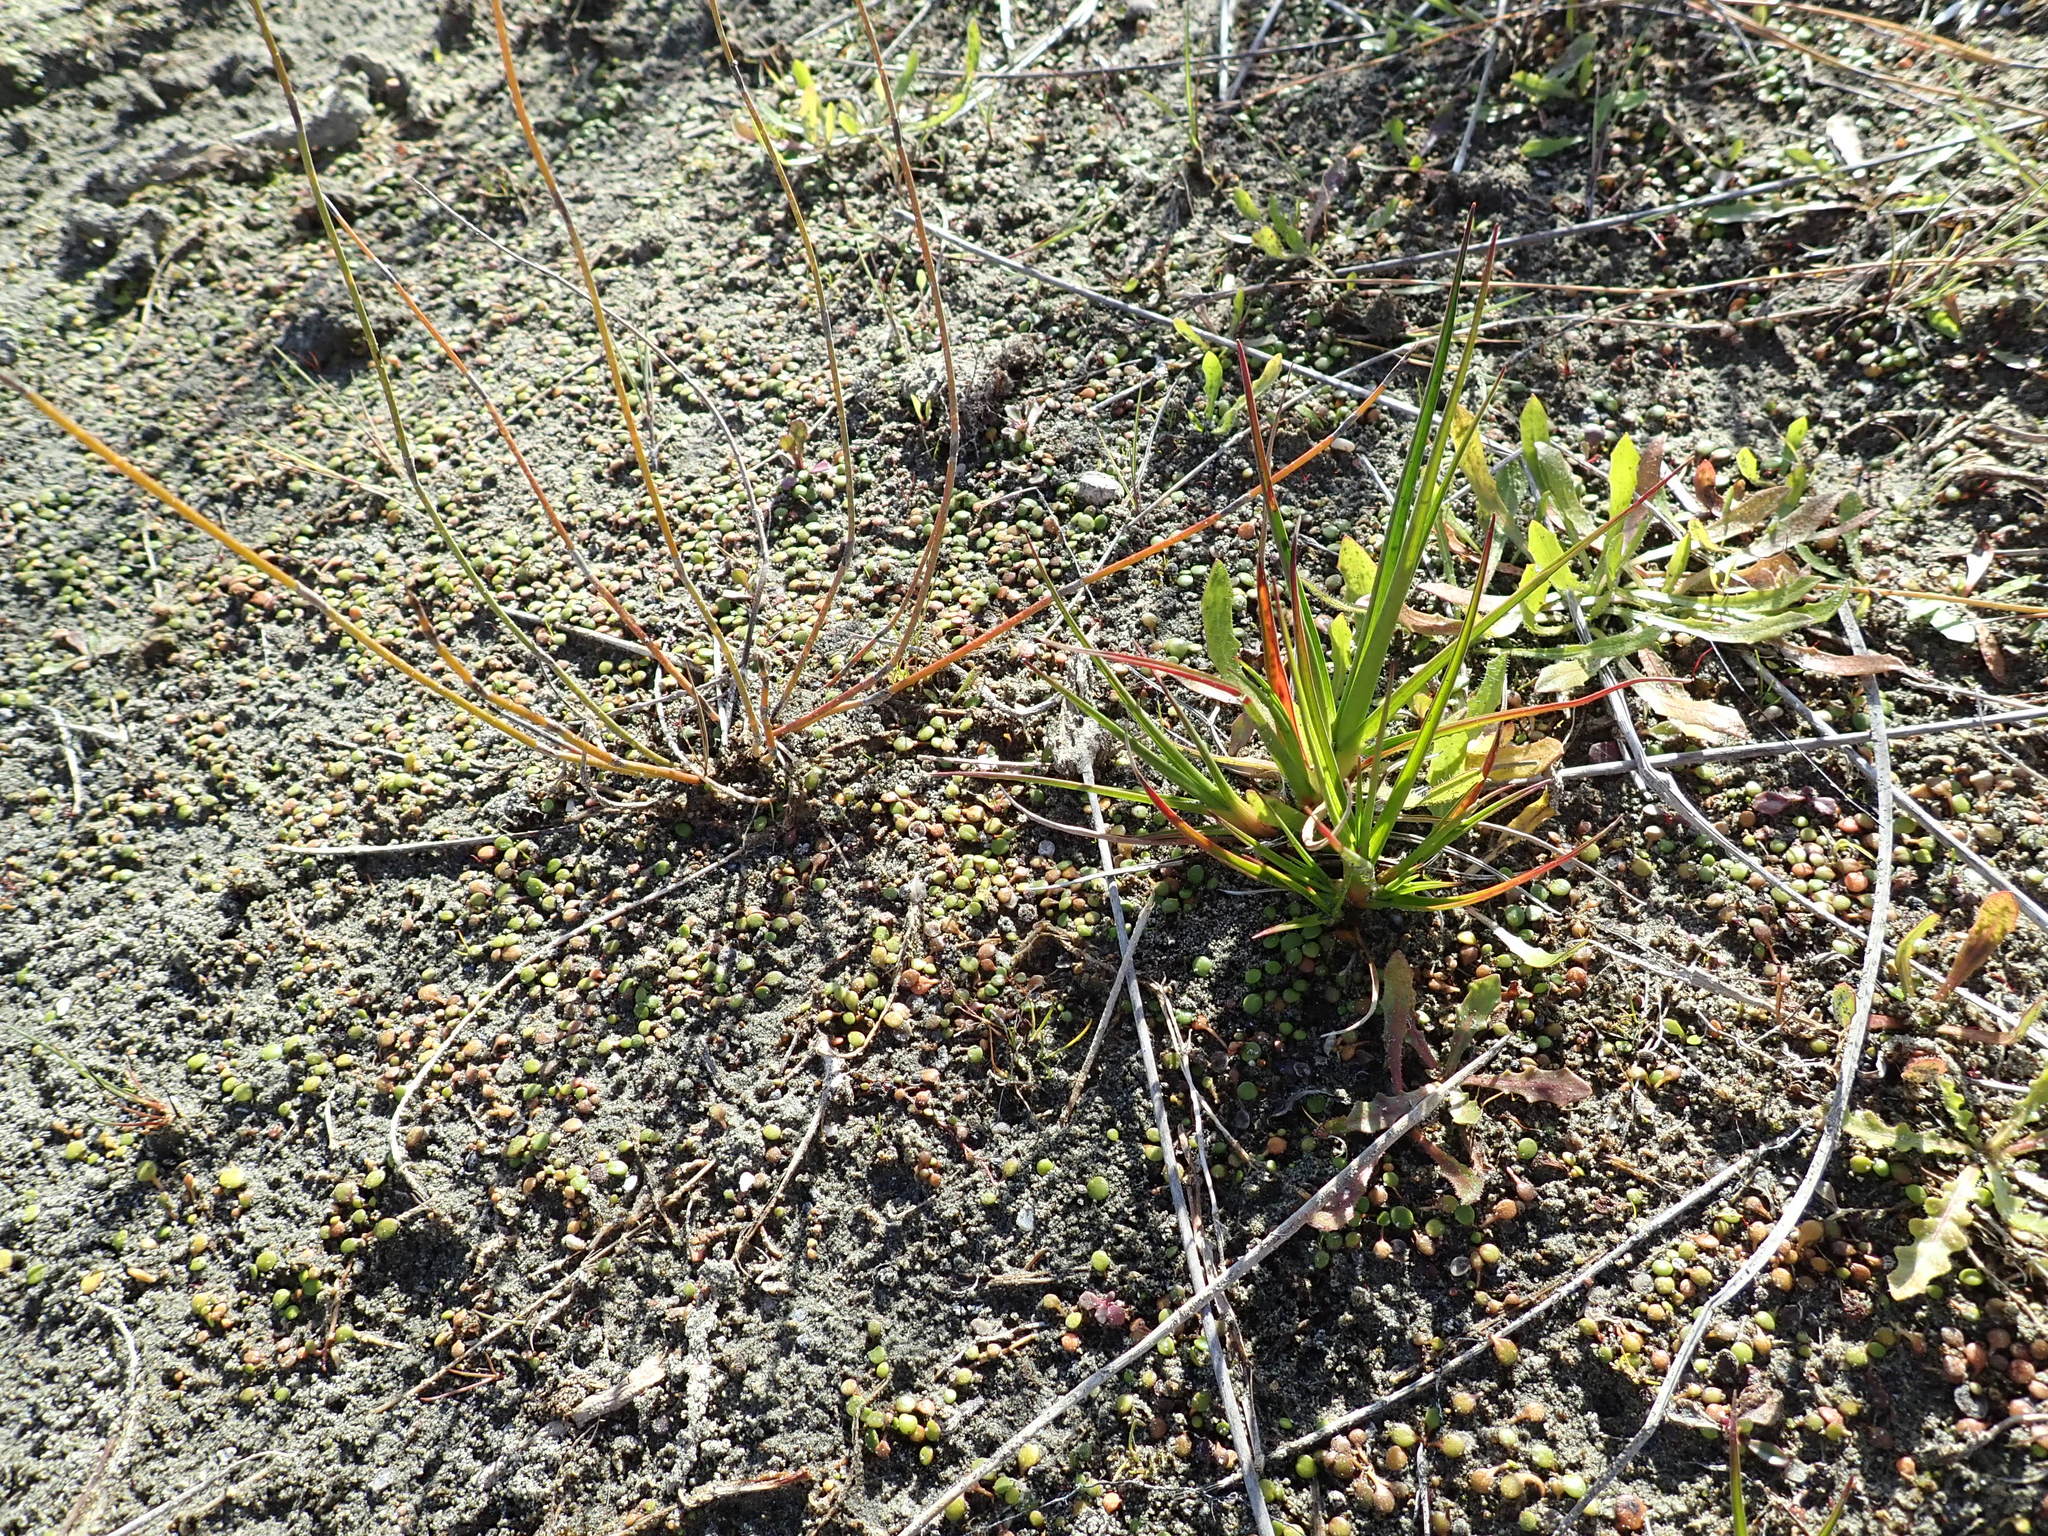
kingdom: Plantae
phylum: Tracheophyta
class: Liliopsida
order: Poales
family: Juncaceae
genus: Juncus
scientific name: Juncus caespiticius
